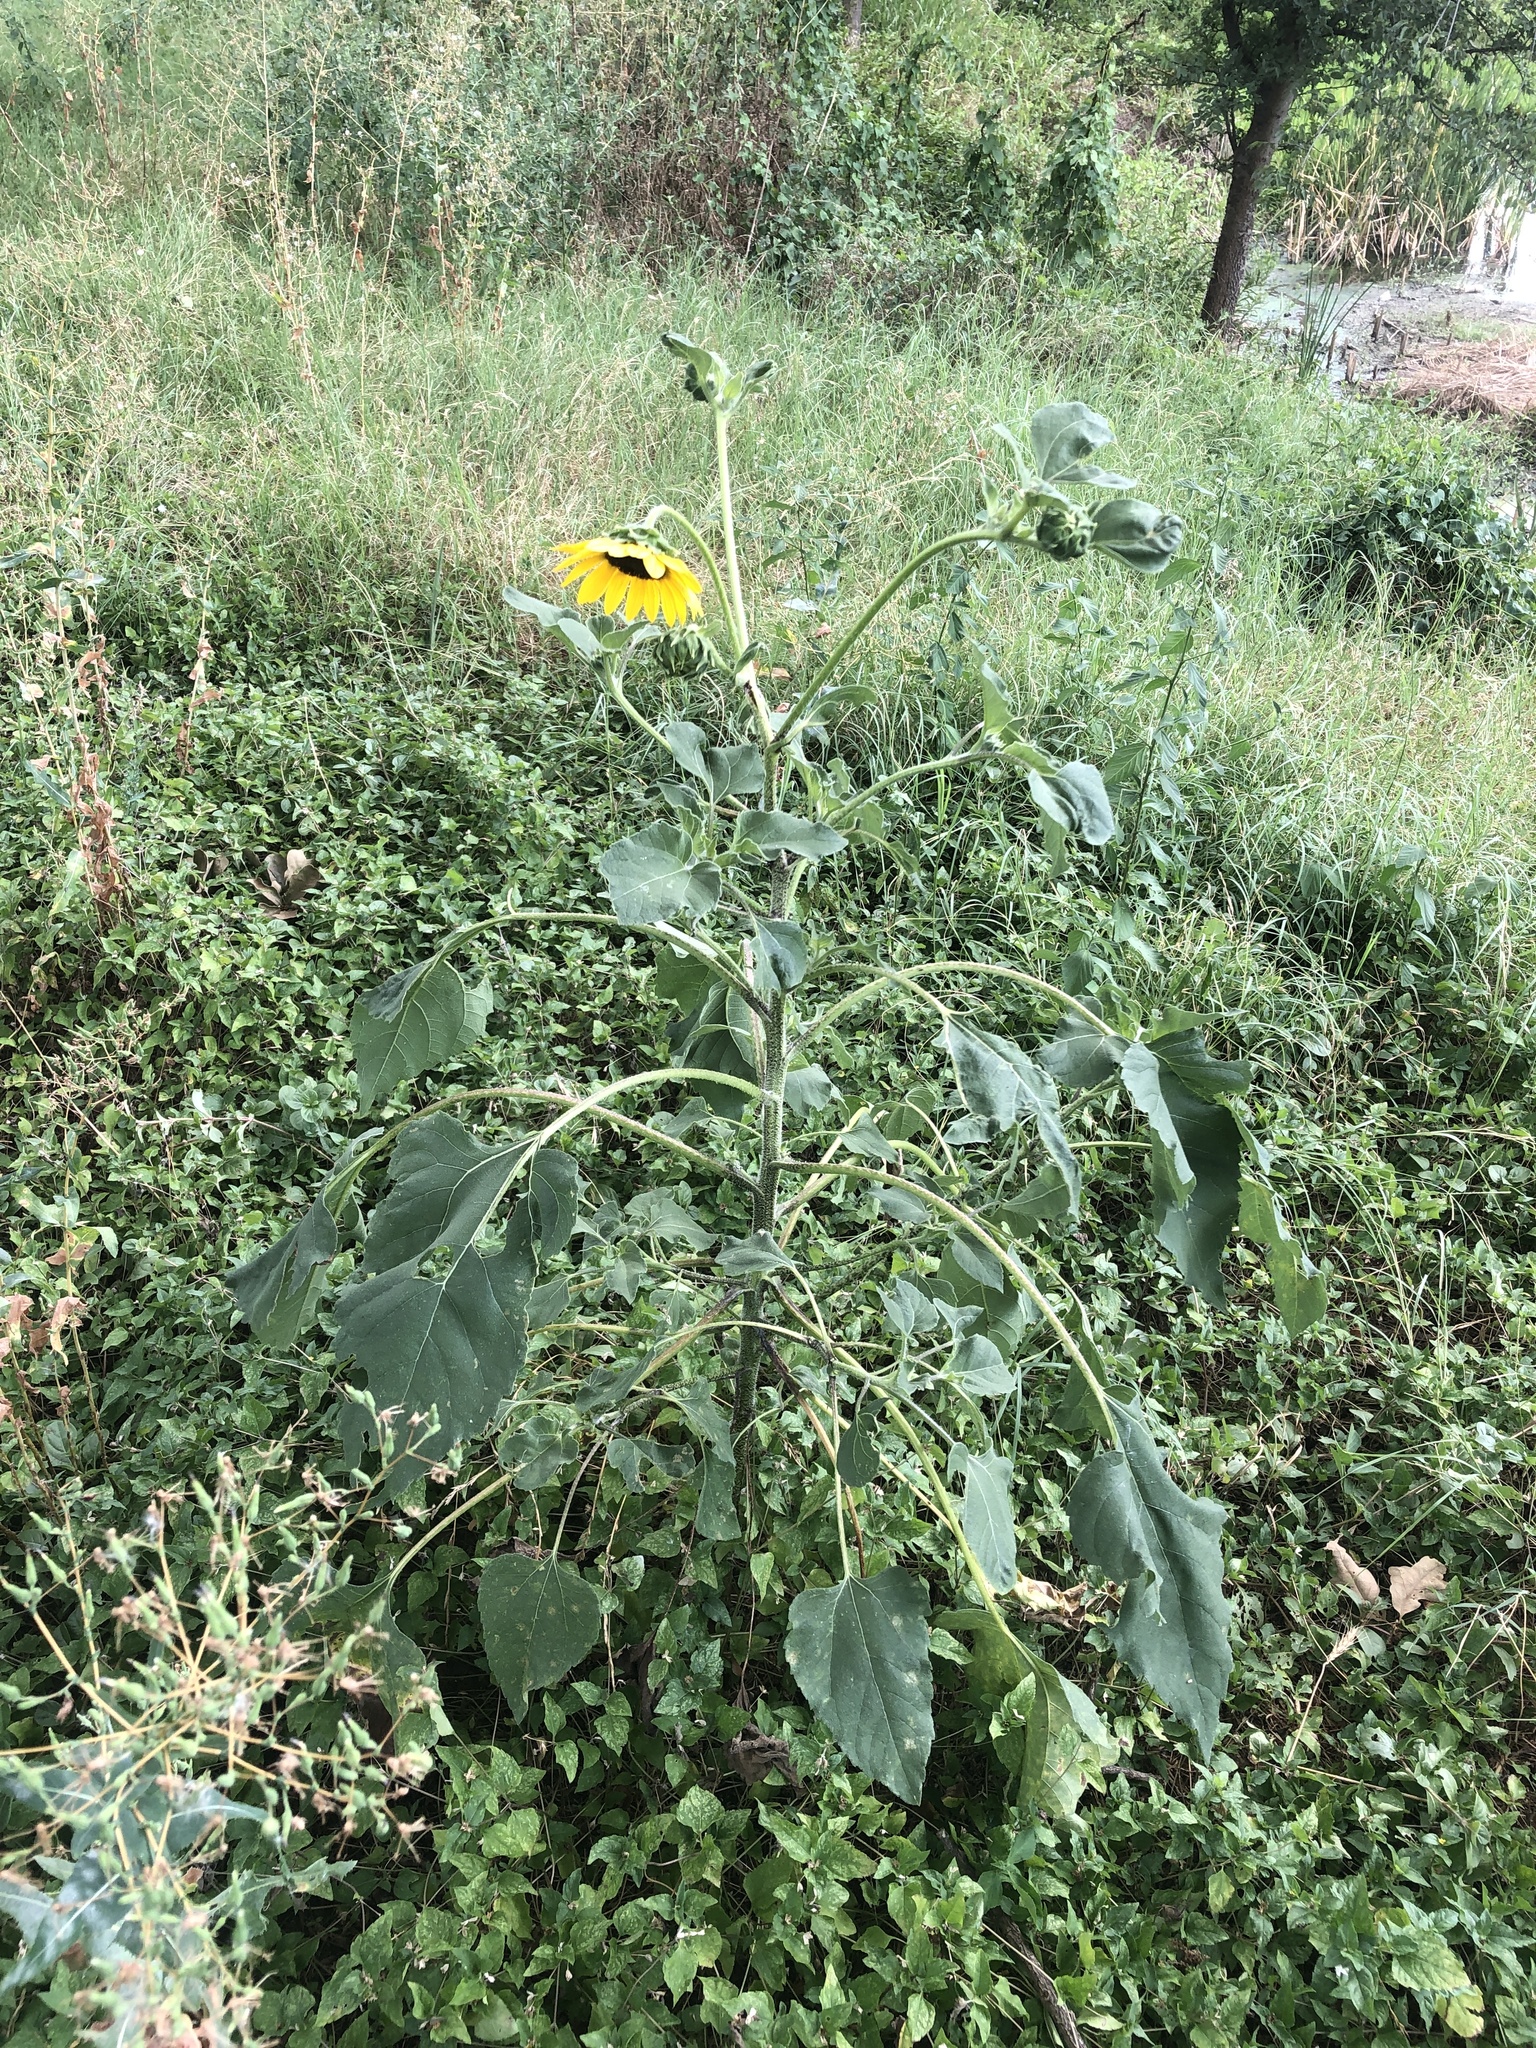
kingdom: Plantae
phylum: Tracheophyta
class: Magnoliopsida
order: Asterales
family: Asteraceae
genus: Helianthus
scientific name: Helianthus annuus
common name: Sunflower
